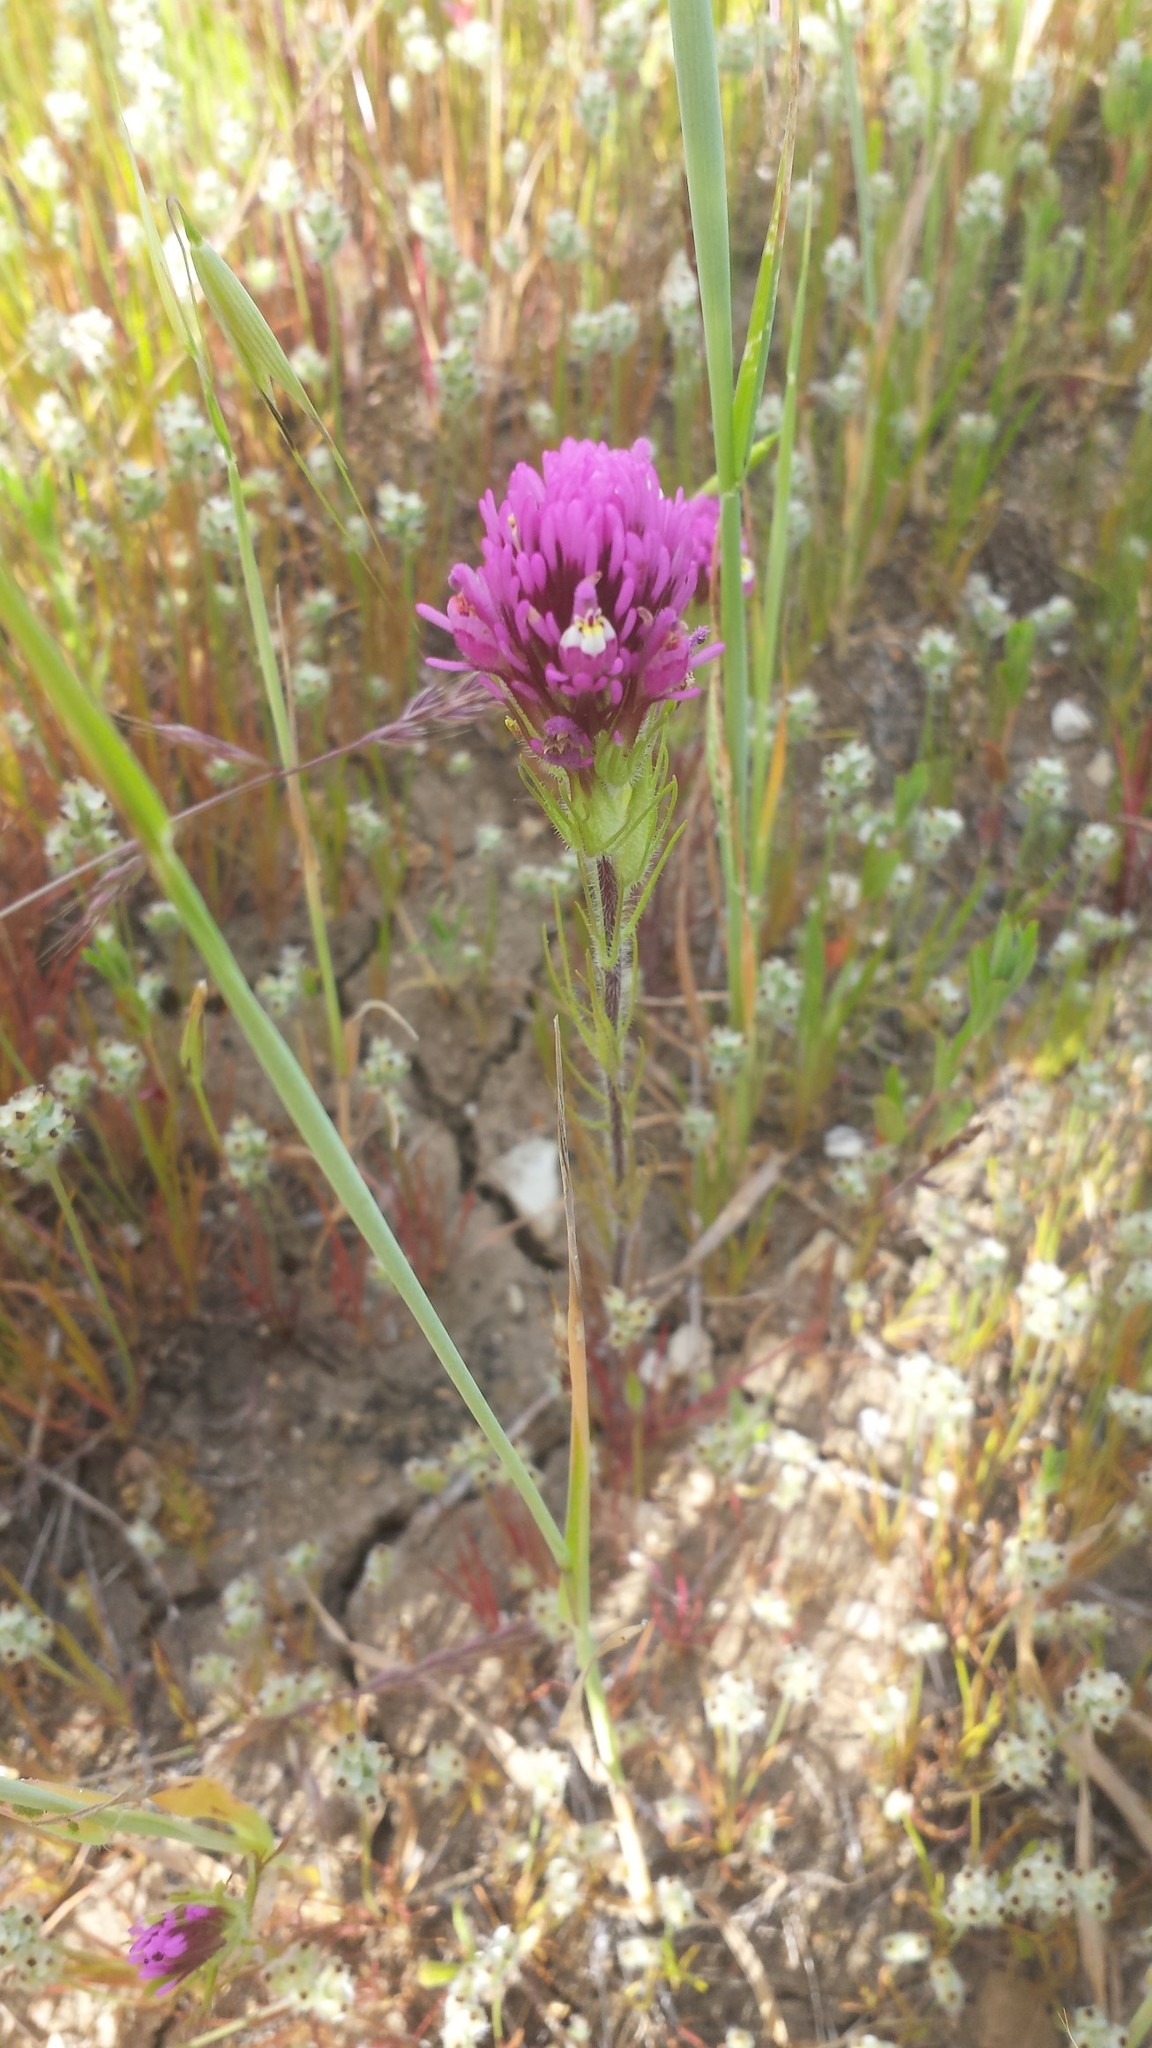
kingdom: Plantae
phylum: Tracheophyta
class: Magnoliopsida
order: Lamiales
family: Orobanchaceae
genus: Castilleja
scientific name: Castilleja exserta
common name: Purple owl-clover
